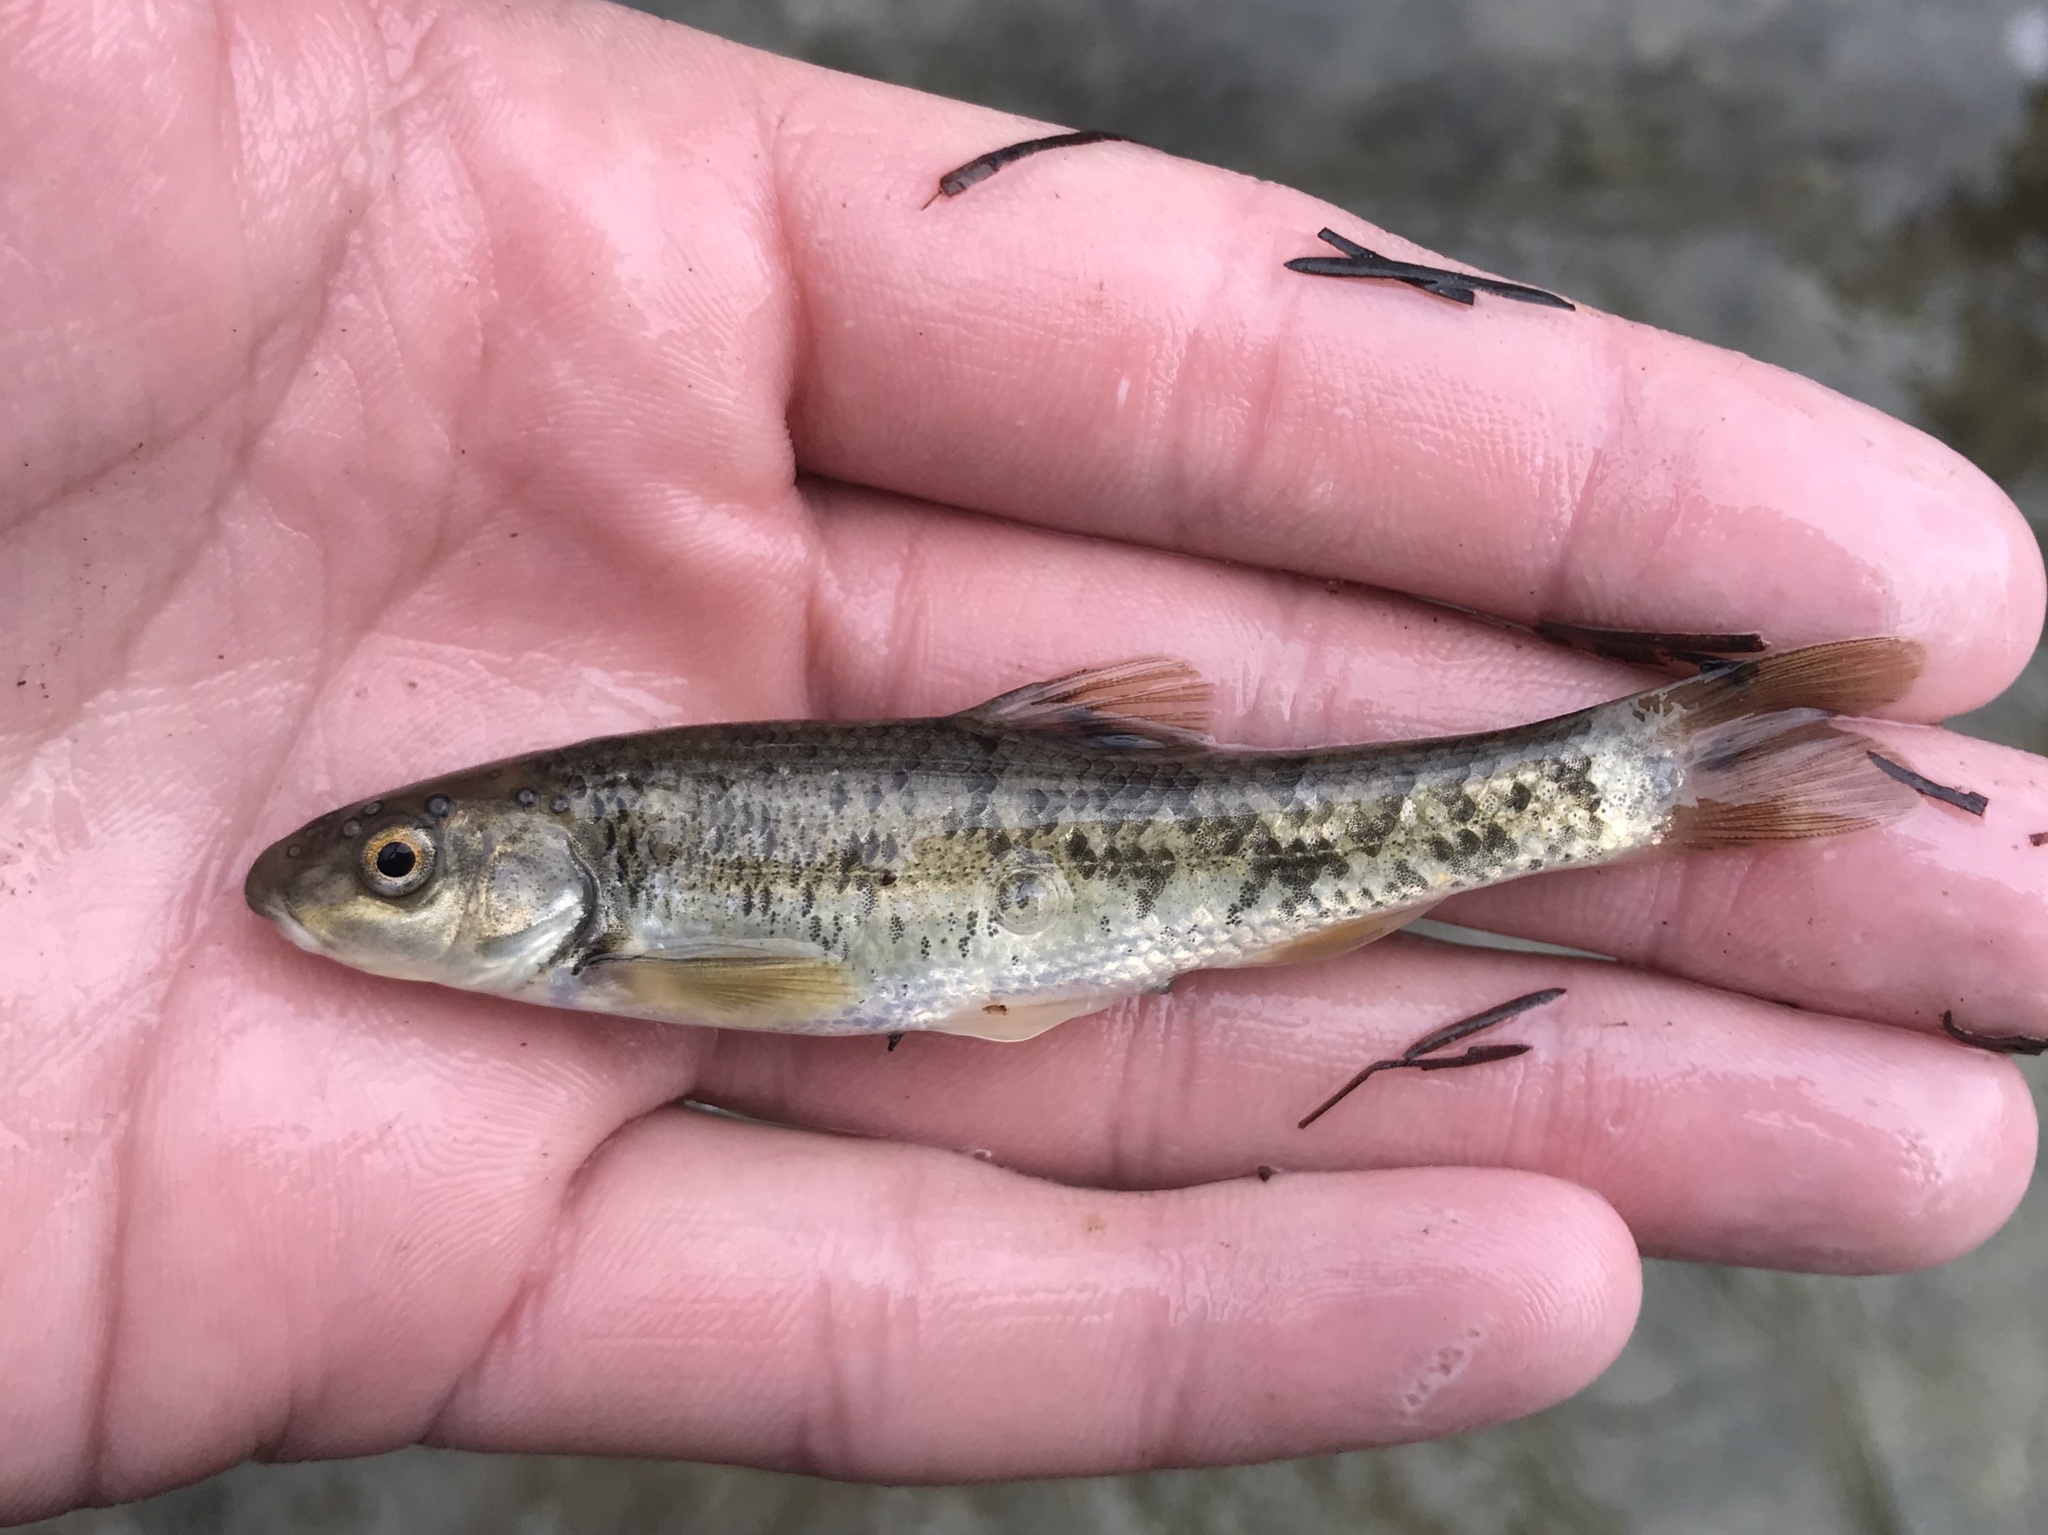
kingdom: Animalia
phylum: Chordata
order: Cypriniformes
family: Cyprinidae
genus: Campostoma
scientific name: Campostoma anomalum
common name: Central stoneroller
